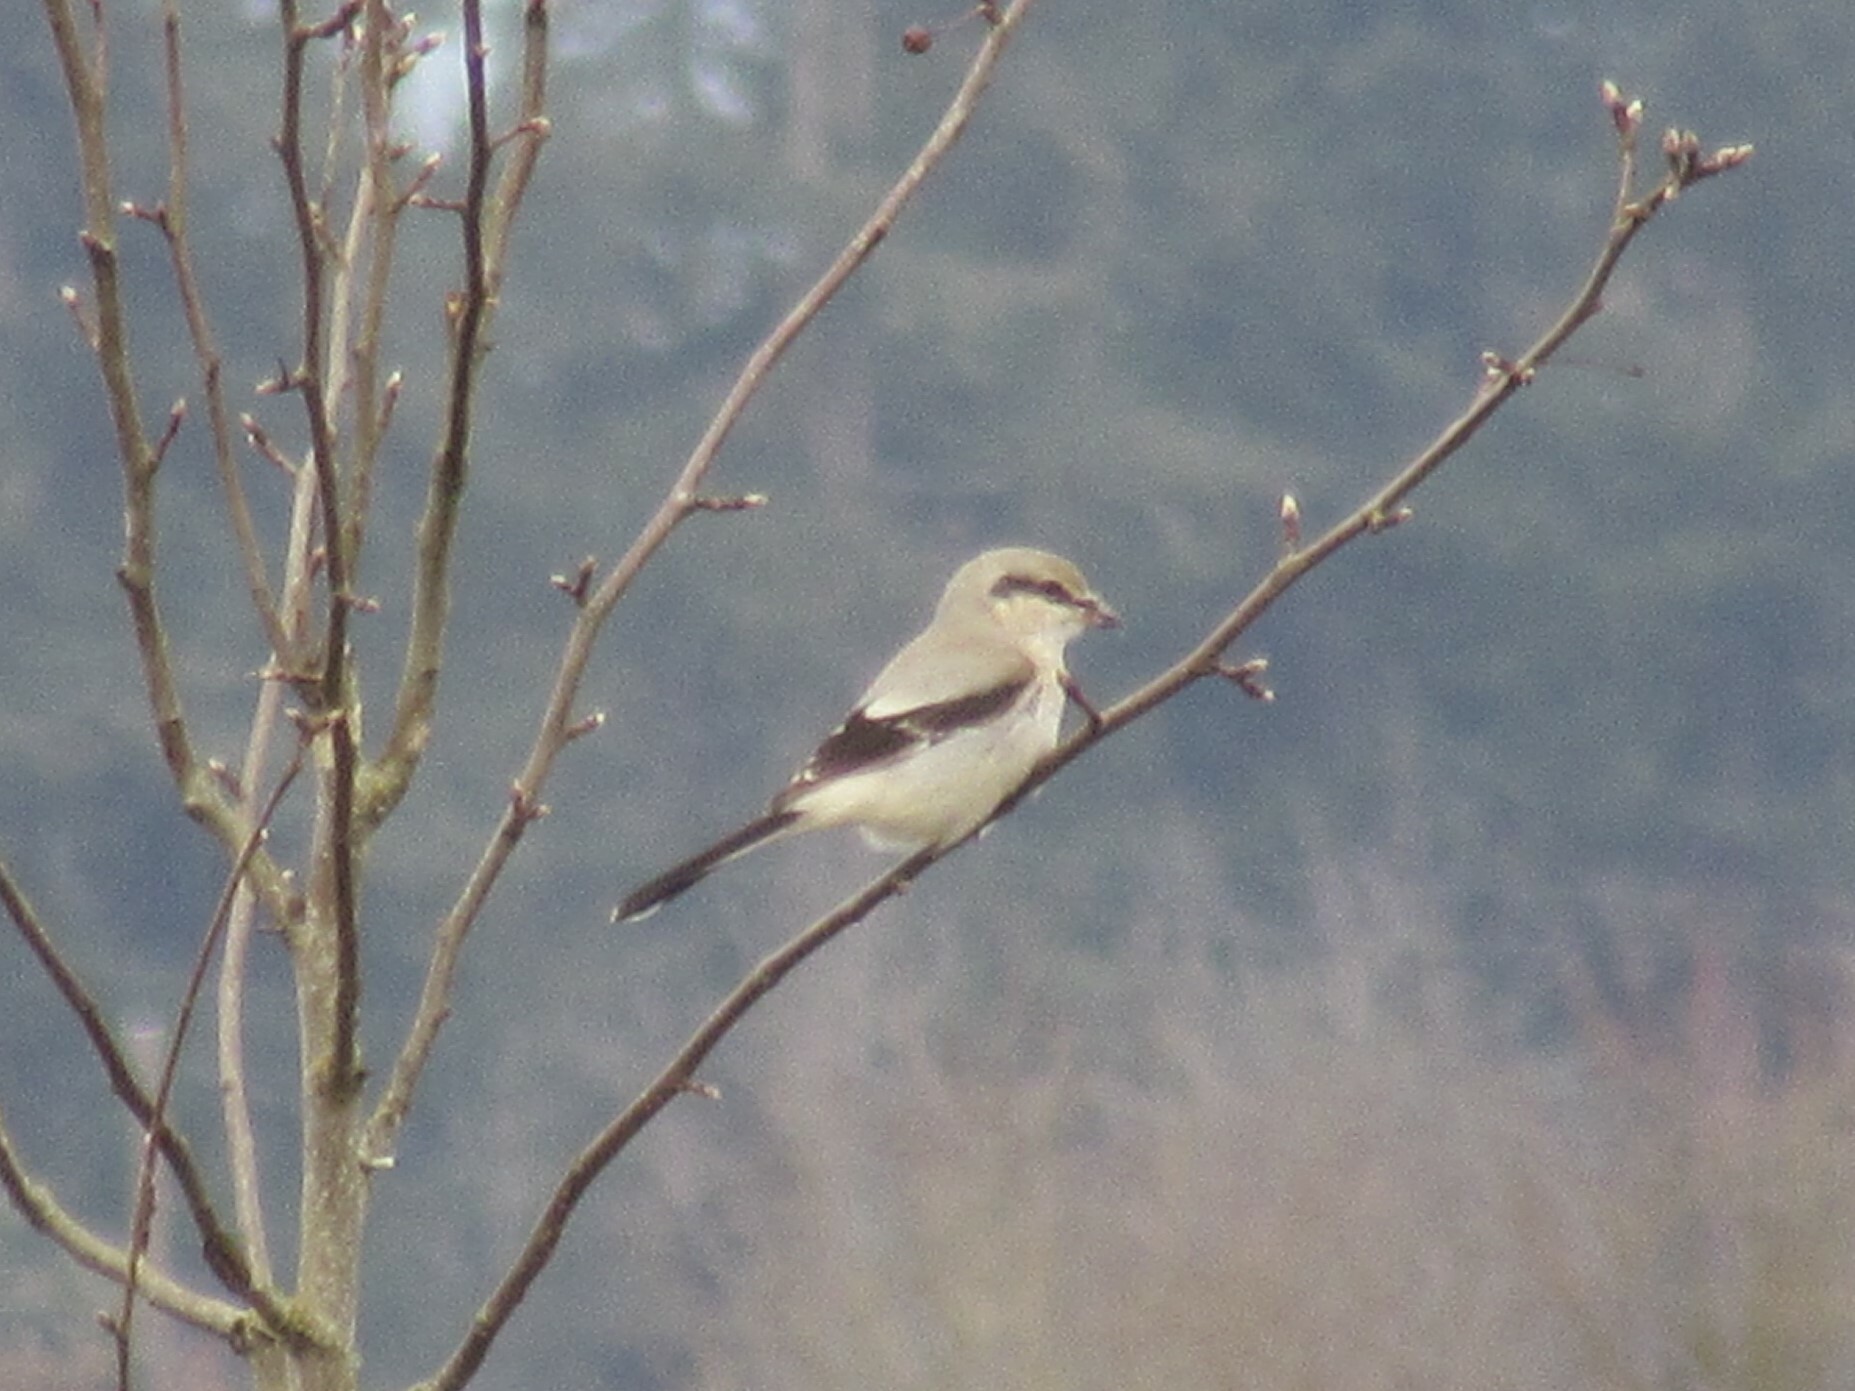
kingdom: Animalia
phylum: Chordata
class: Aves
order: Passeriformes
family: Laniidae
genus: Lanius
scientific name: Lanius borealis
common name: Northern shrike
